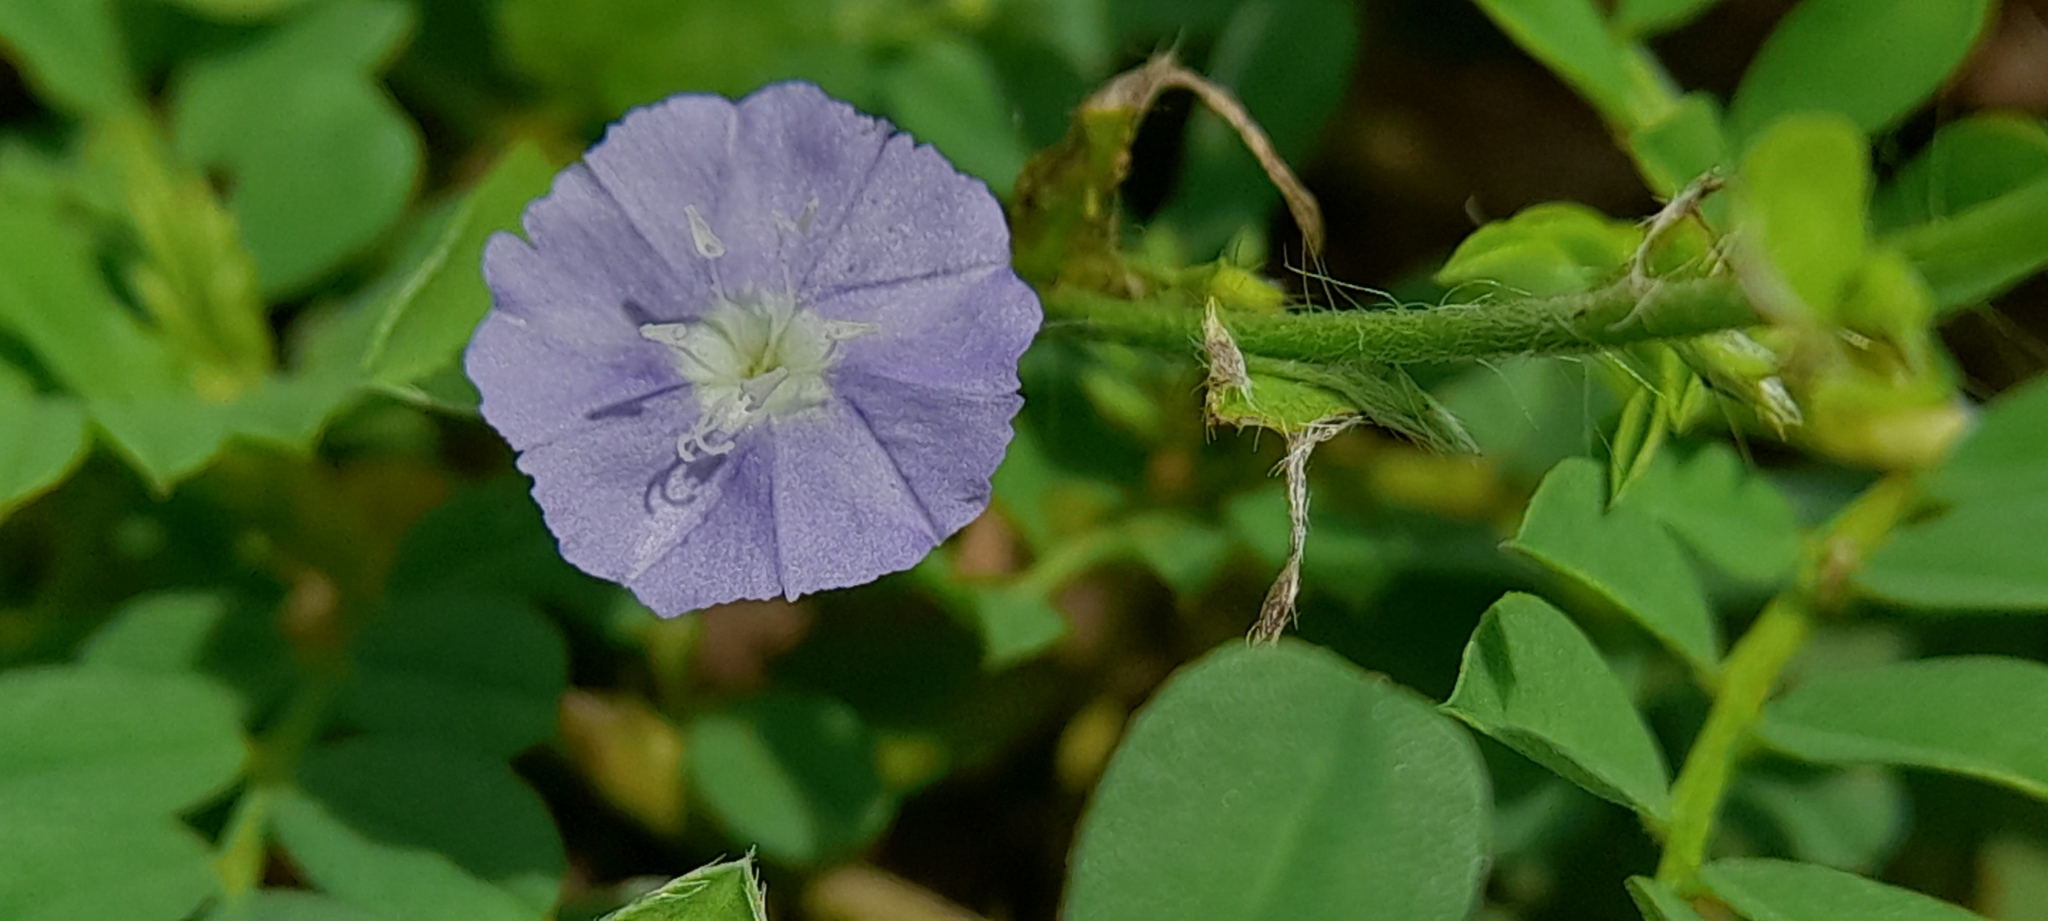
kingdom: Plantae
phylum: Tracheophyta
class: Magnoliopsida
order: Solanales
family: Convolvulaceae
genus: Evolvulus
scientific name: Evolvulus alsinoides
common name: Slender dwarf morning-glory
